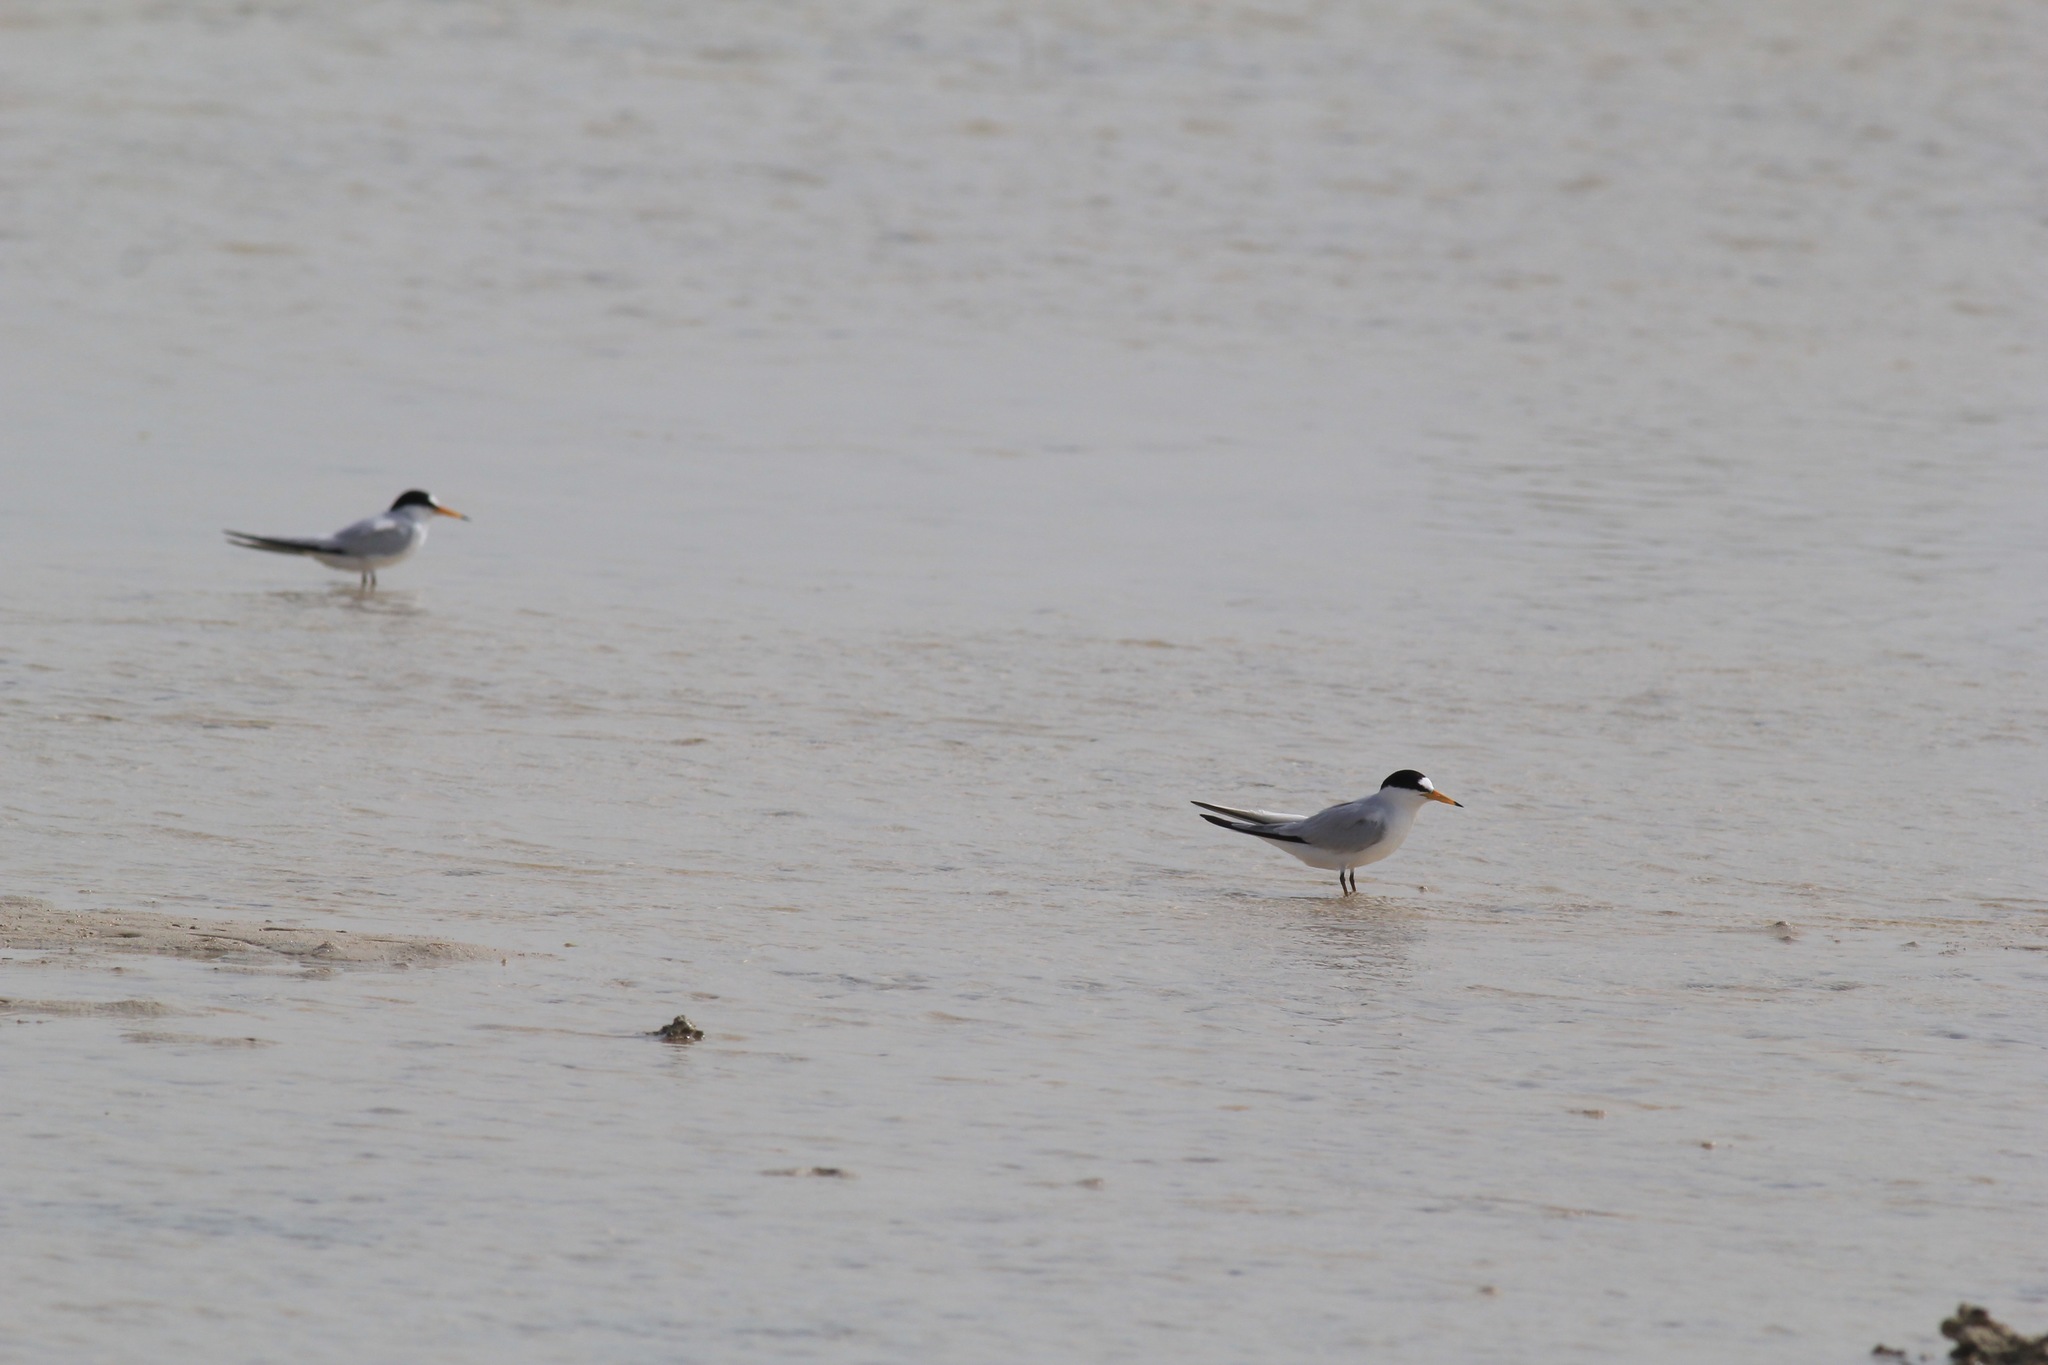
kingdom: Animalia
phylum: Chordata
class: Aves
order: Charadriiformes
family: Laridae
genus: Sternula
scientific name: Sternula saundersi
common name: Saunders's tern
